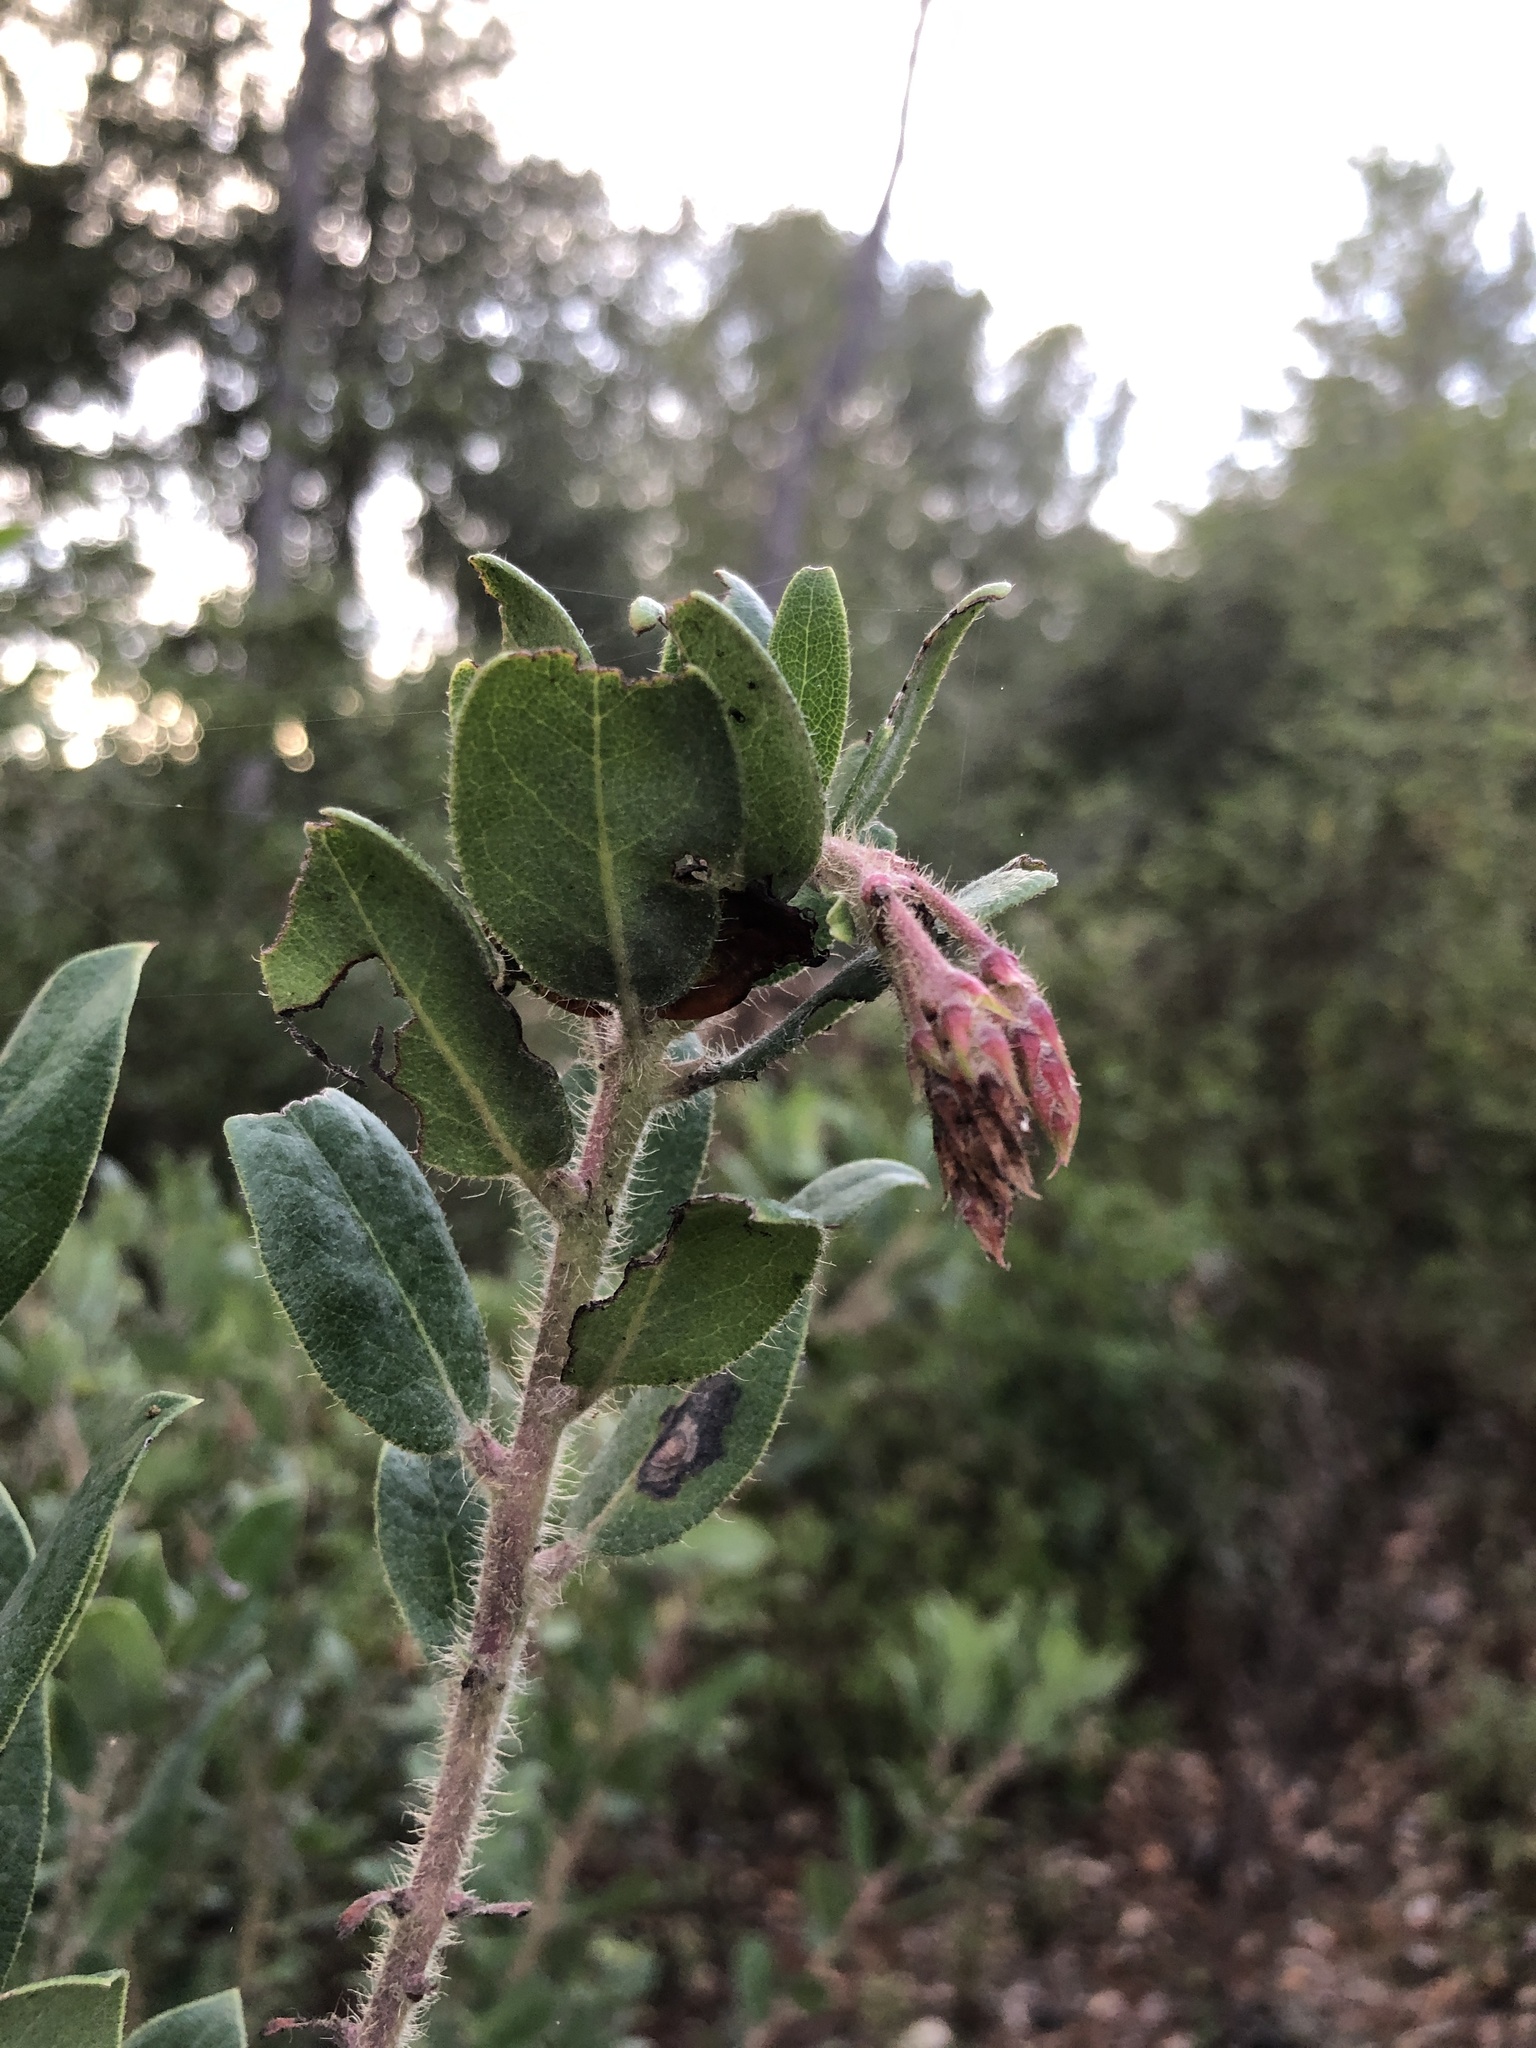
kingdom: Plantae
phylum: Tracheophyta
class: Magnoliopsida
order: Ericales
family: Ericaceae
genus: Arctostaphylos
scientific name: Arctostaphylos crustacea
